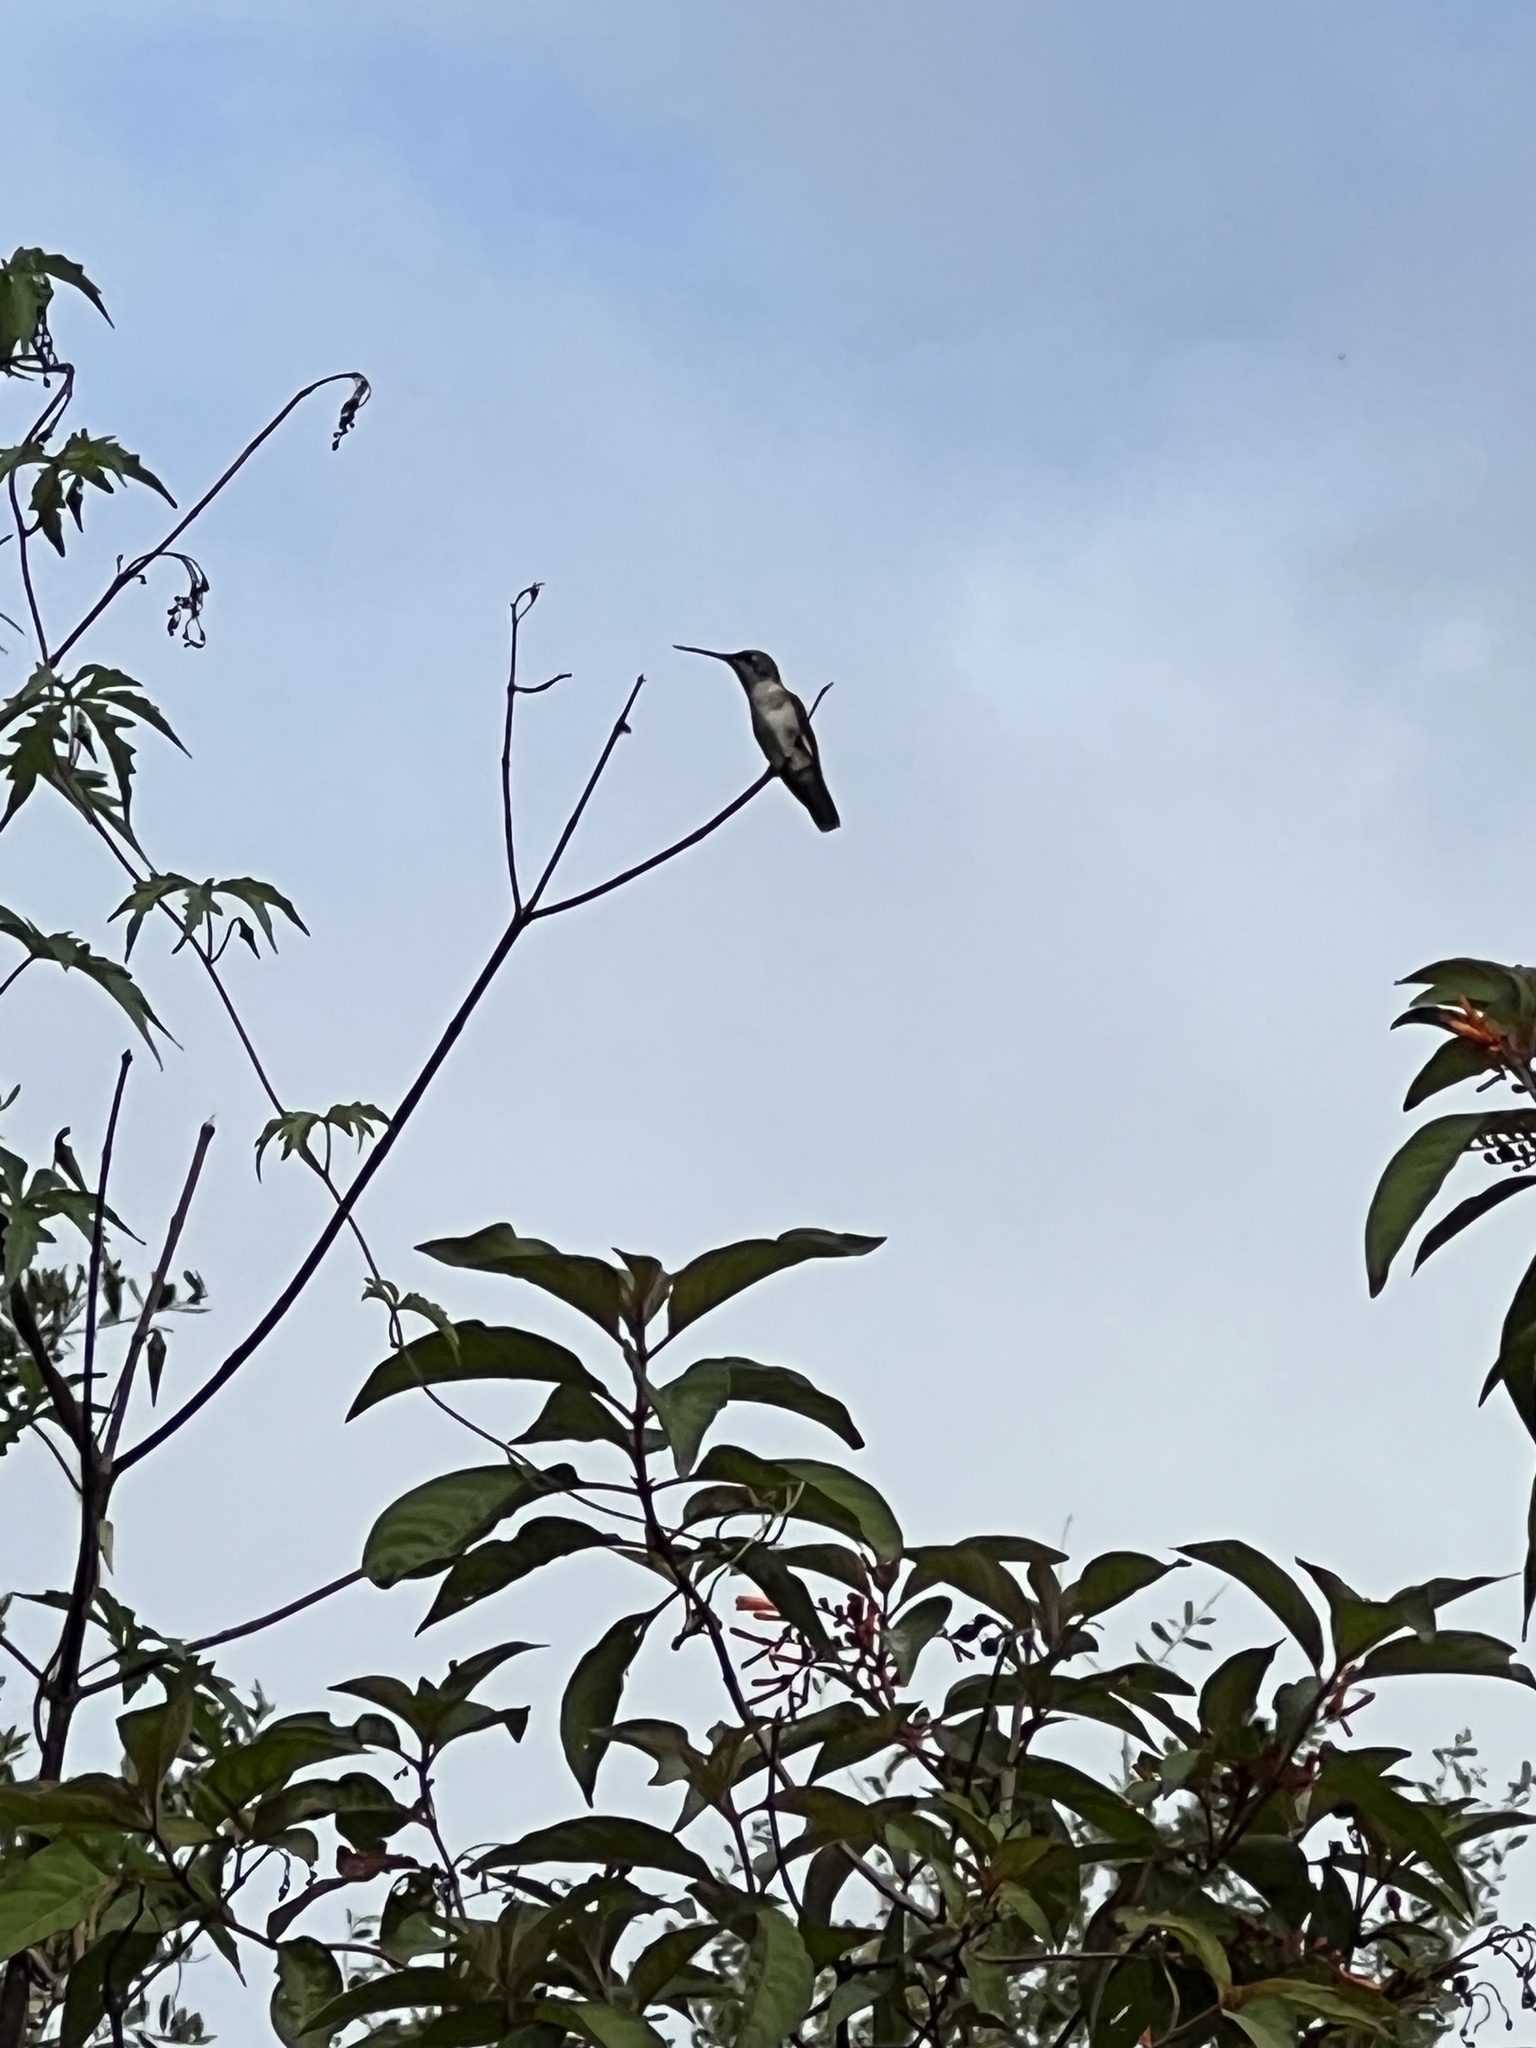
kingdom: Animalia
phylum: Chordata
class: Aves
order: Apodiformes
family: Trochilidae
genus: Archilochus
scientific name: Archilochus colubris
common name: Ruby-throated hummingbird
